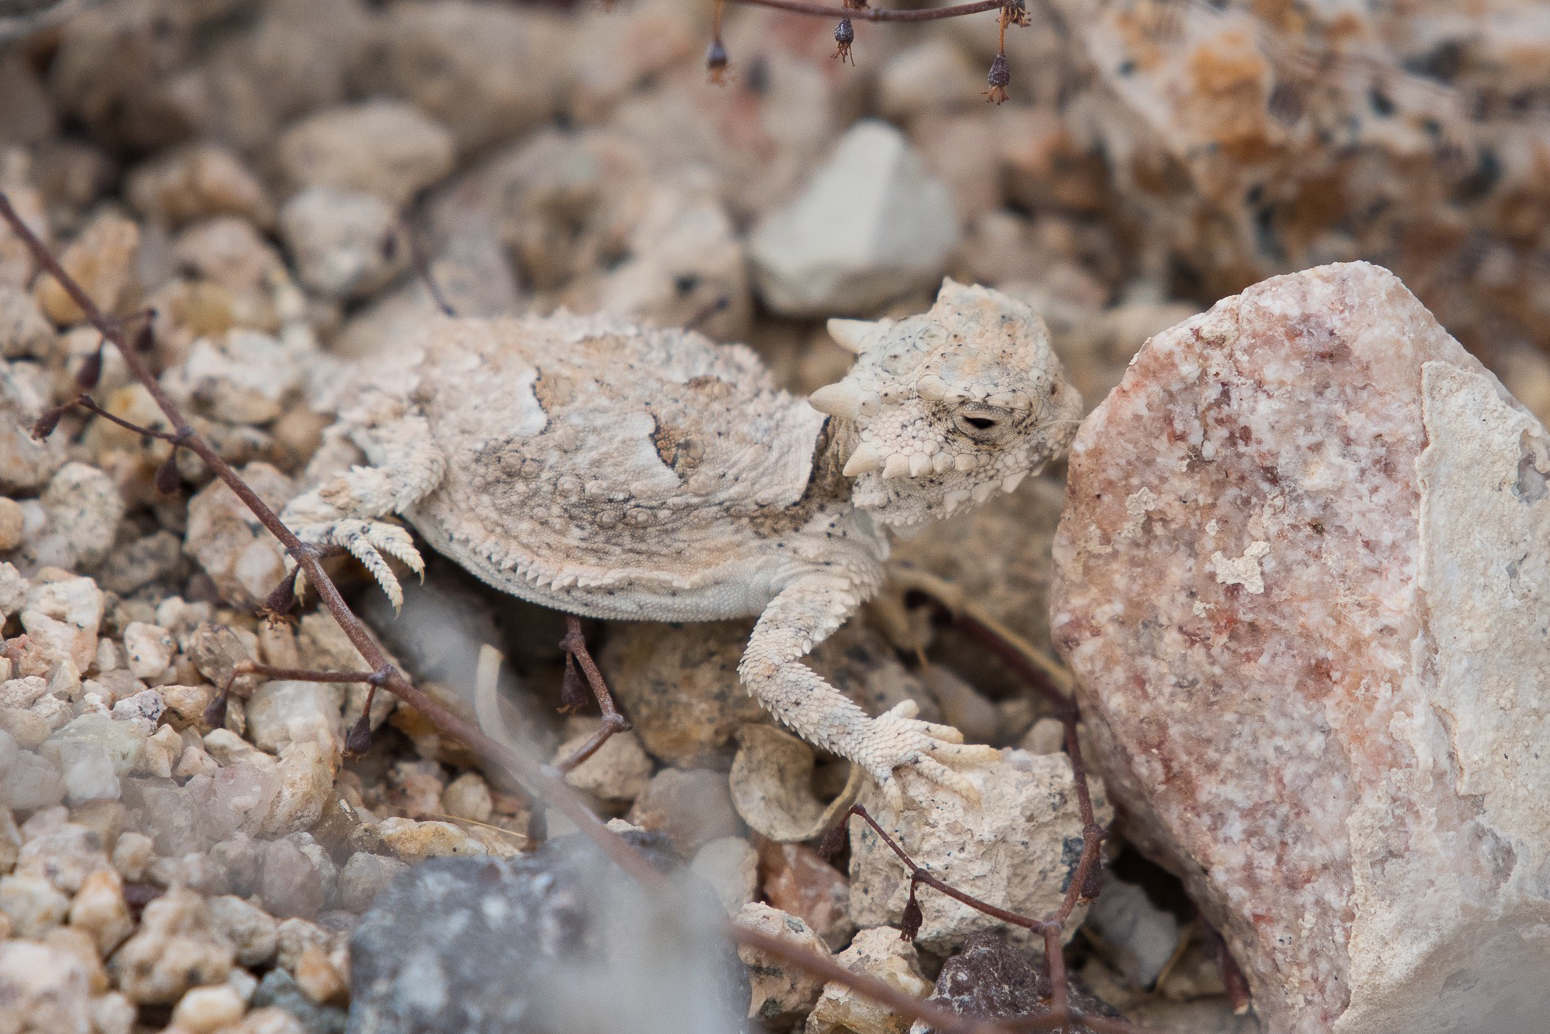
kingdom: Animalia
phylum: Chordata
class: Squamata
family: Phrynosomatidae
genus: Phrynosoma
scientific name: Phrynosoma platyrhinos
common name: Desert horned lizard
